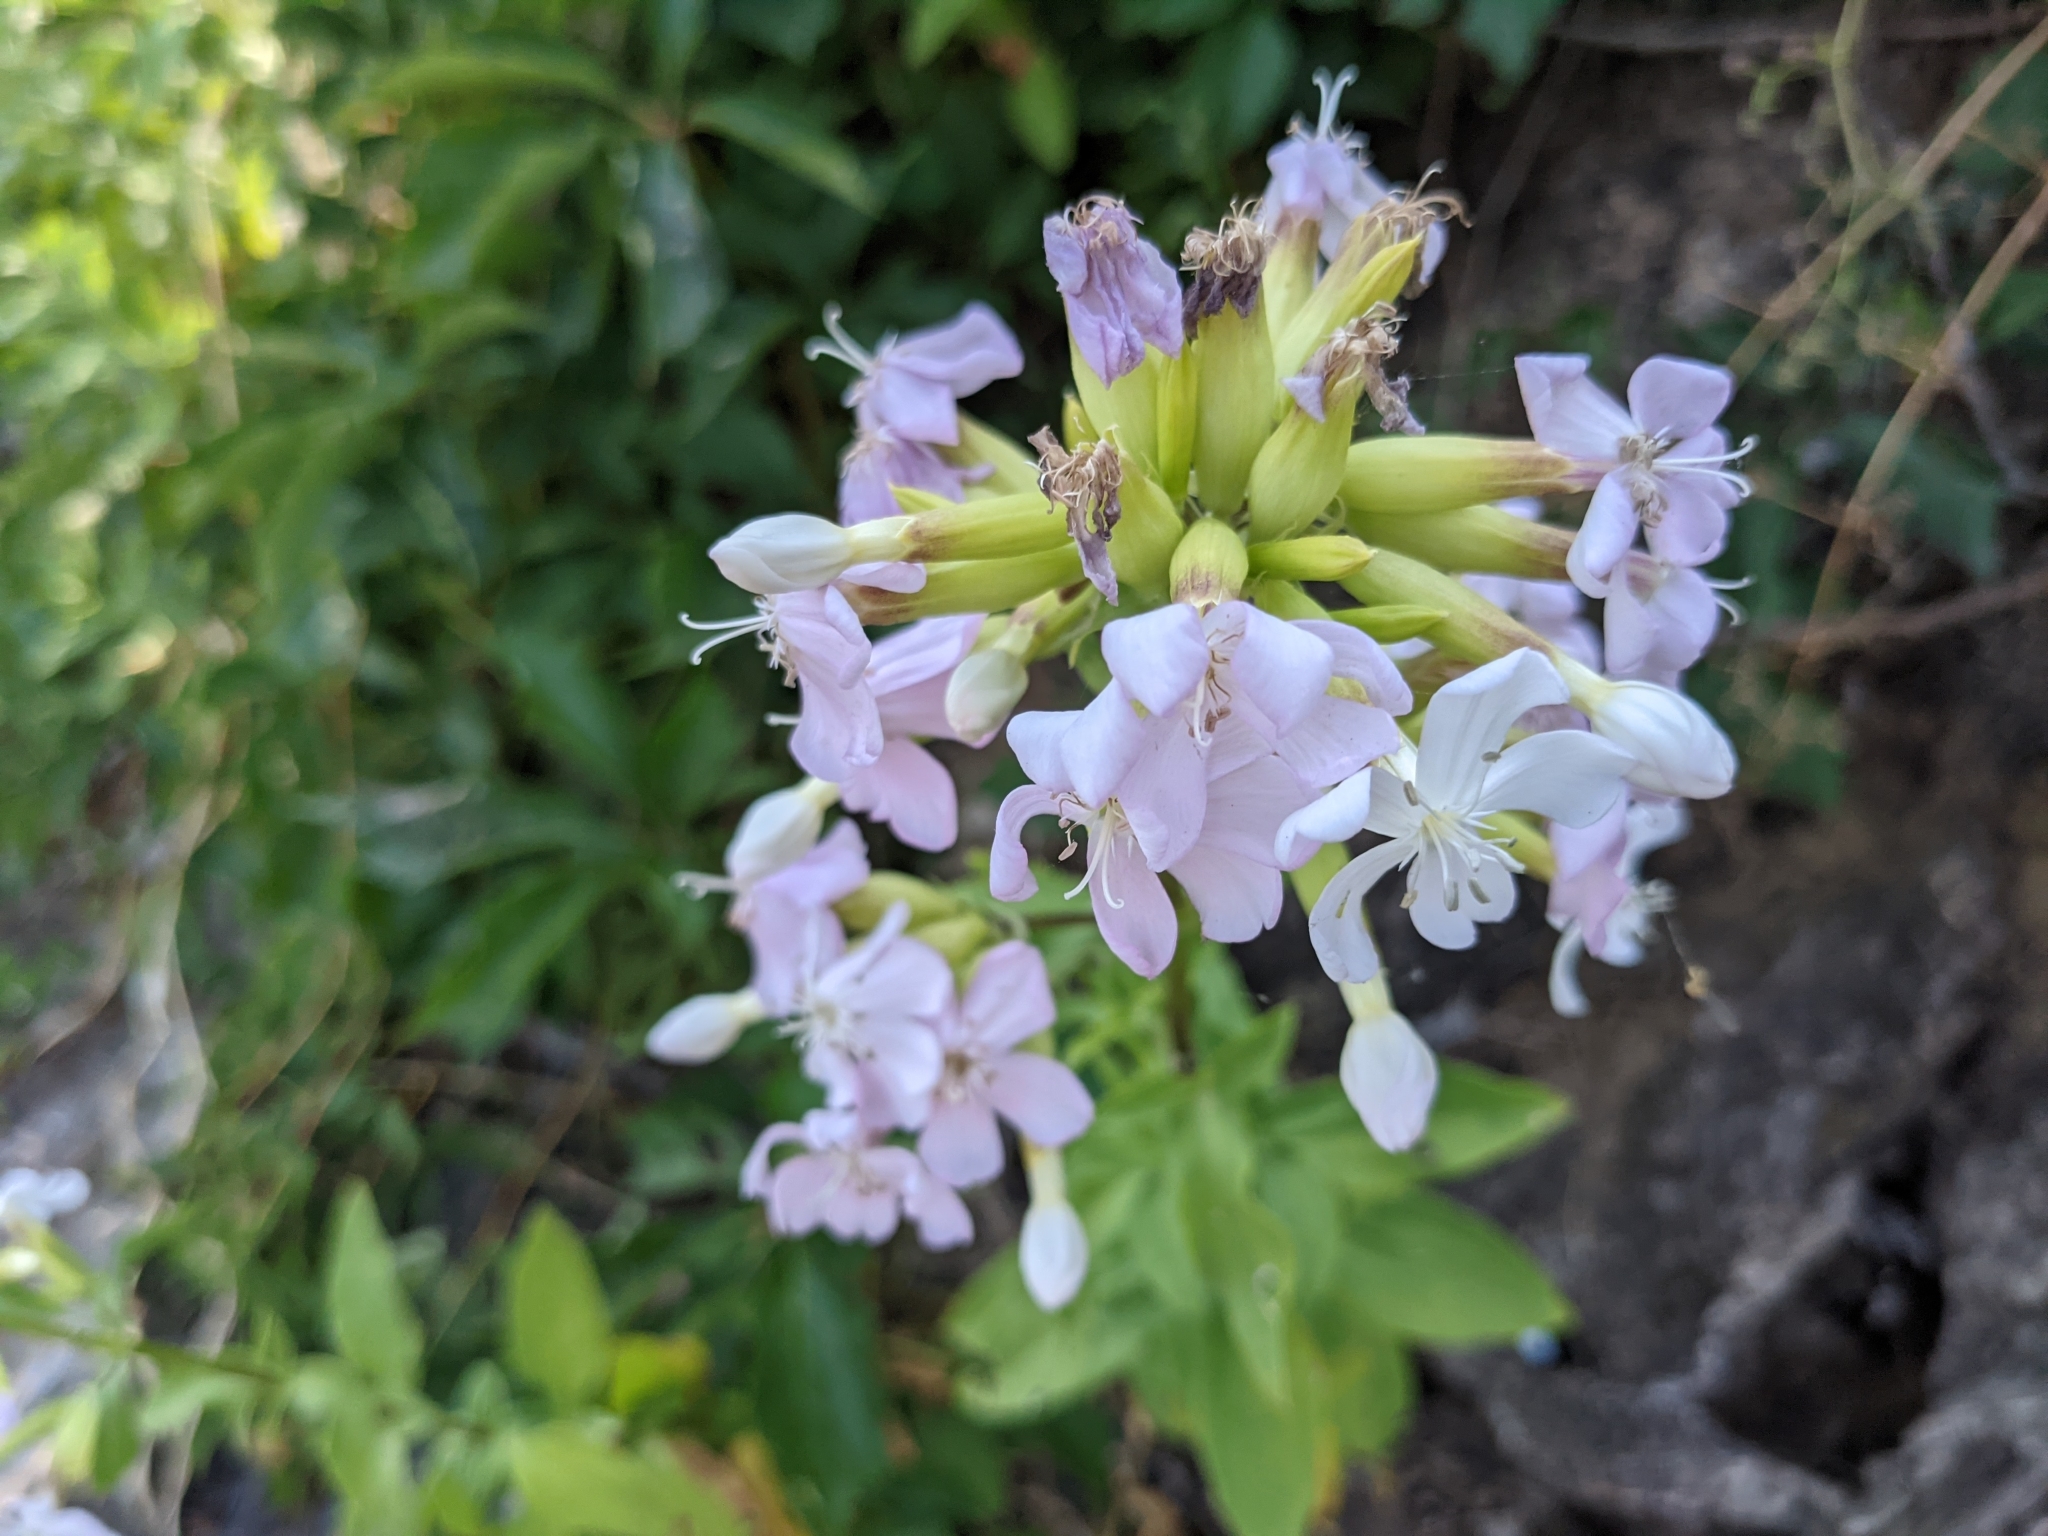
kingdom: Plantae
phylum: Tracheophyta
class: Magnoliopsida
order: Caryophyllales
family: Caryophyllaceae
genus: Saponaria
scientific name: Saponaria officinalis
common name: Soapwort
